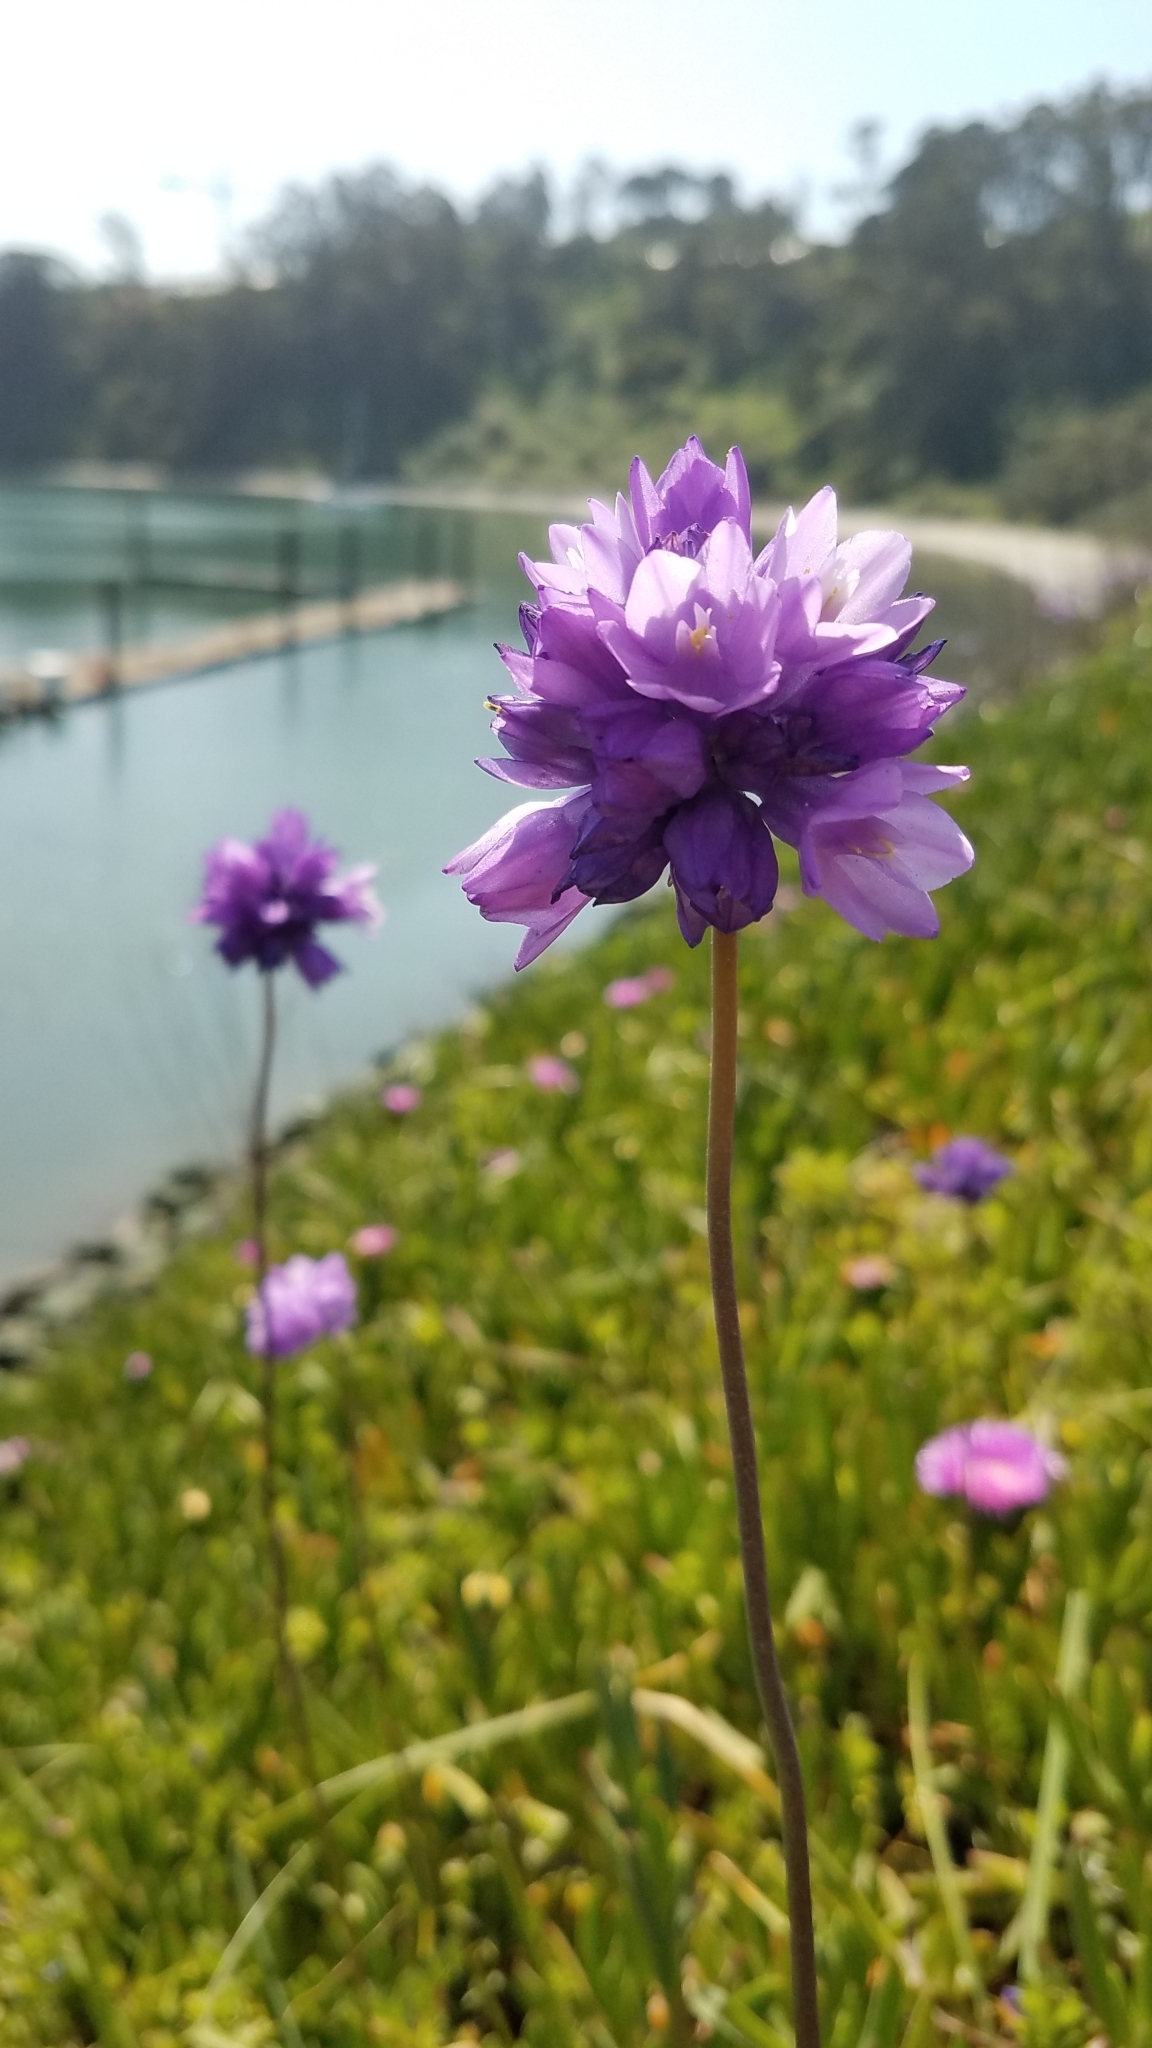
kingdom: Plantae
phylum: Tracheophyta
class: Liliopsida
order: Asparagales
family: Asparagaceae
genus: Dipterostemon
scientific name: Dipterostemon capitatus
